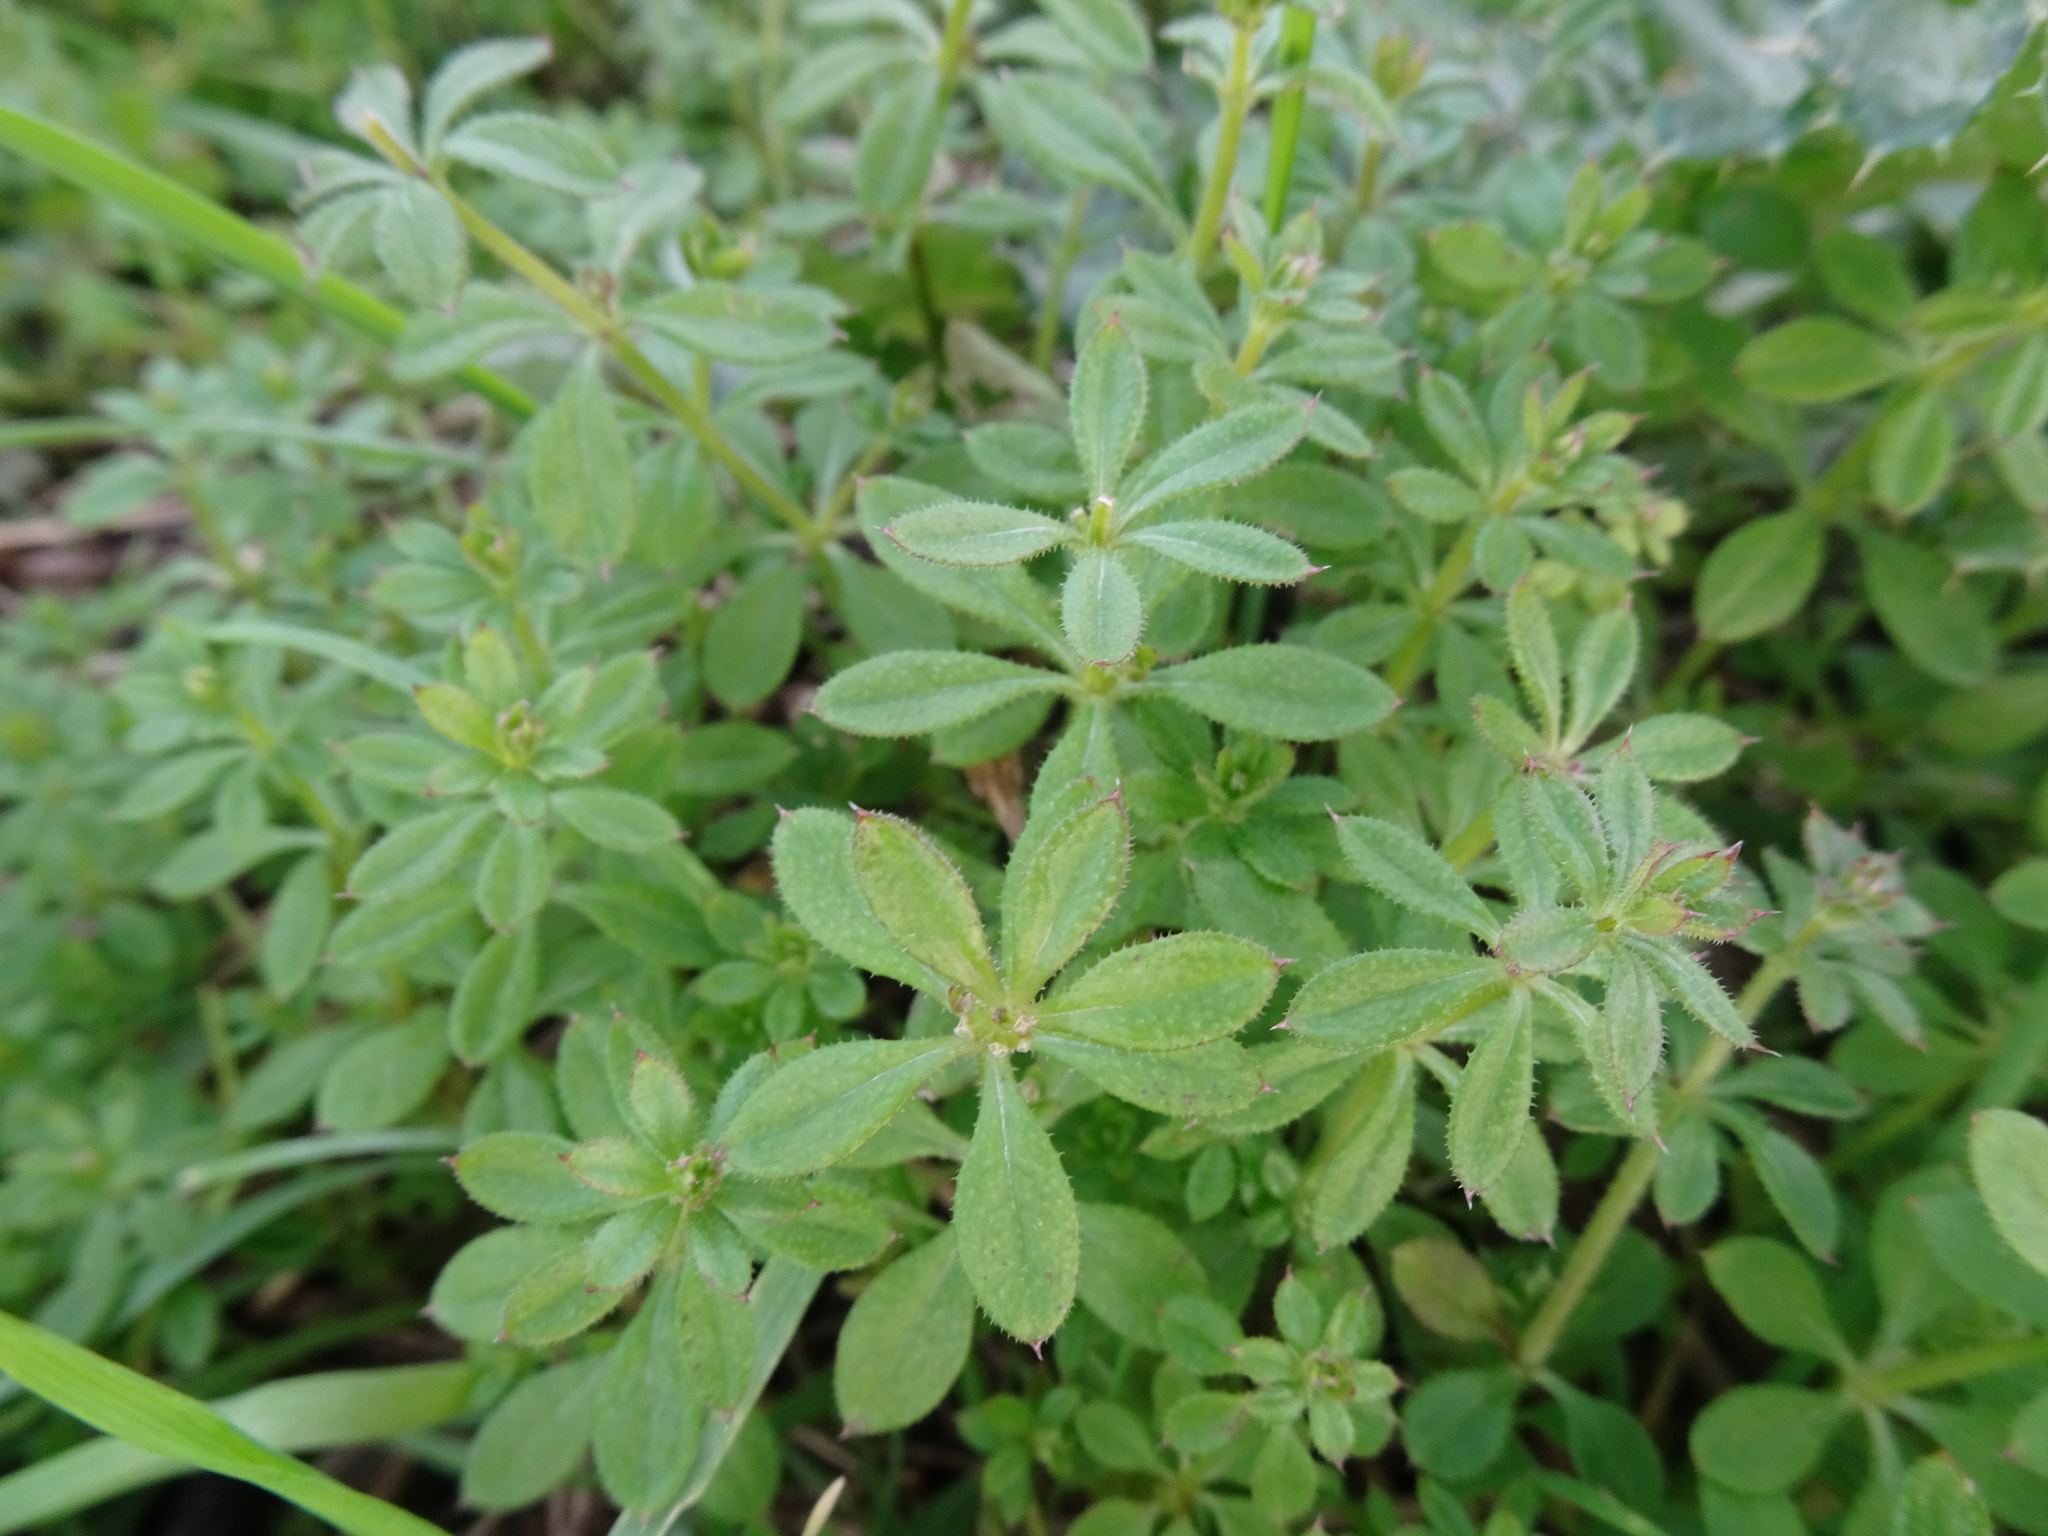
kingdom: Plantae
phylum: Tracheophyta
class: Magnoliopsida
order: Gentianales
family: Rubiaceae
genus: Galium
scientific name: Galium aparine
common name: Cleavers
